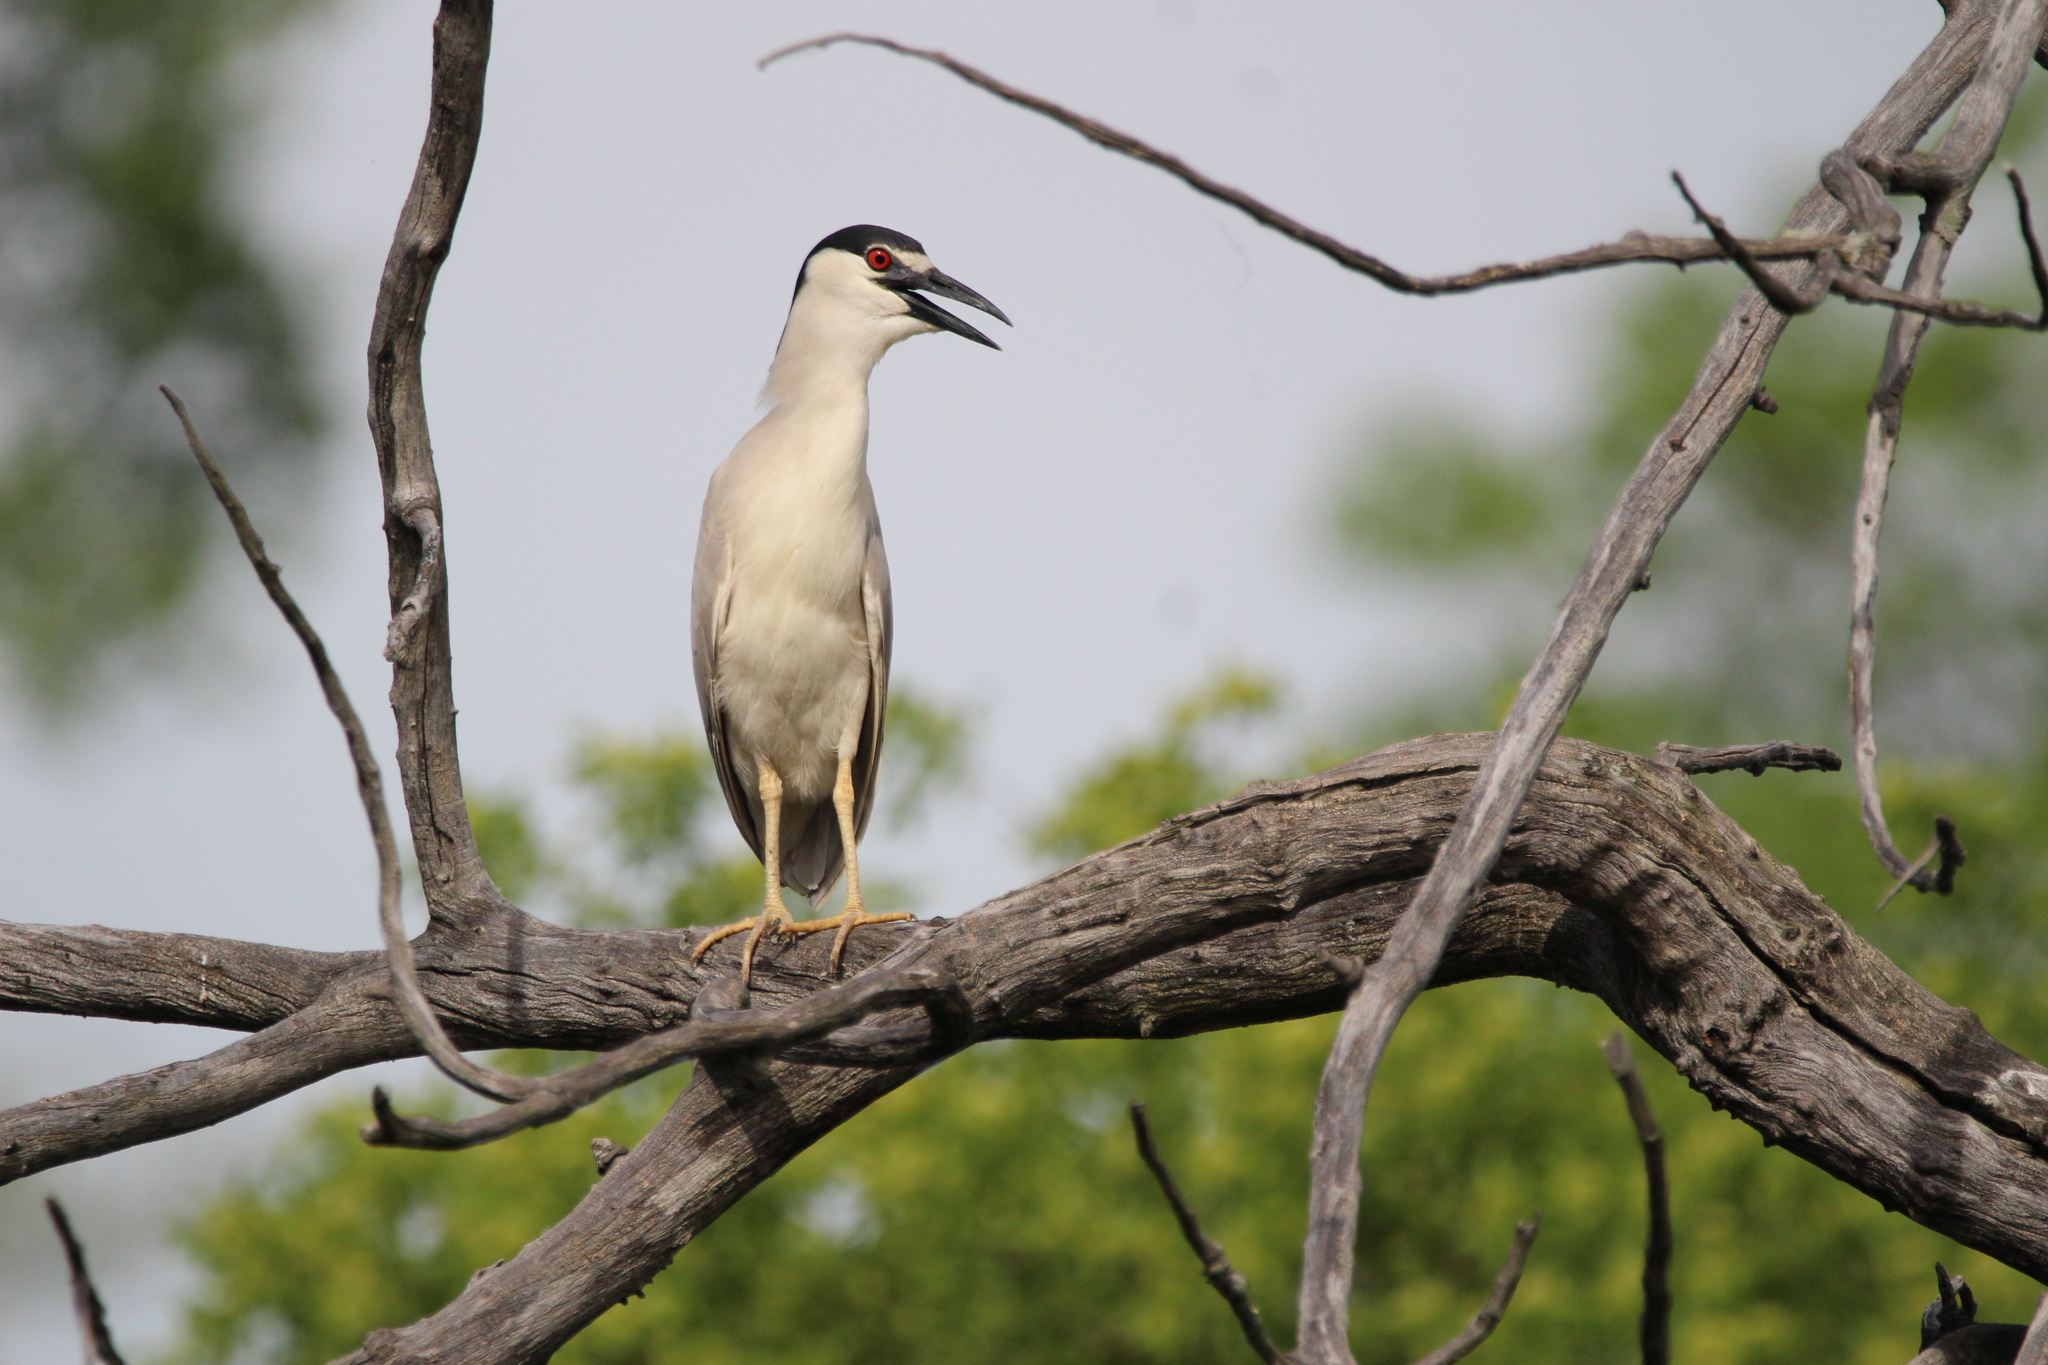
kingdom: Animalia
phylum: Chordata
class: Aves
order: Pelecaniformes
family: Ardeidae
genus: Nycticorax
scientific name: Nycticorax nycticorax
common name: Black-crowned night heron
